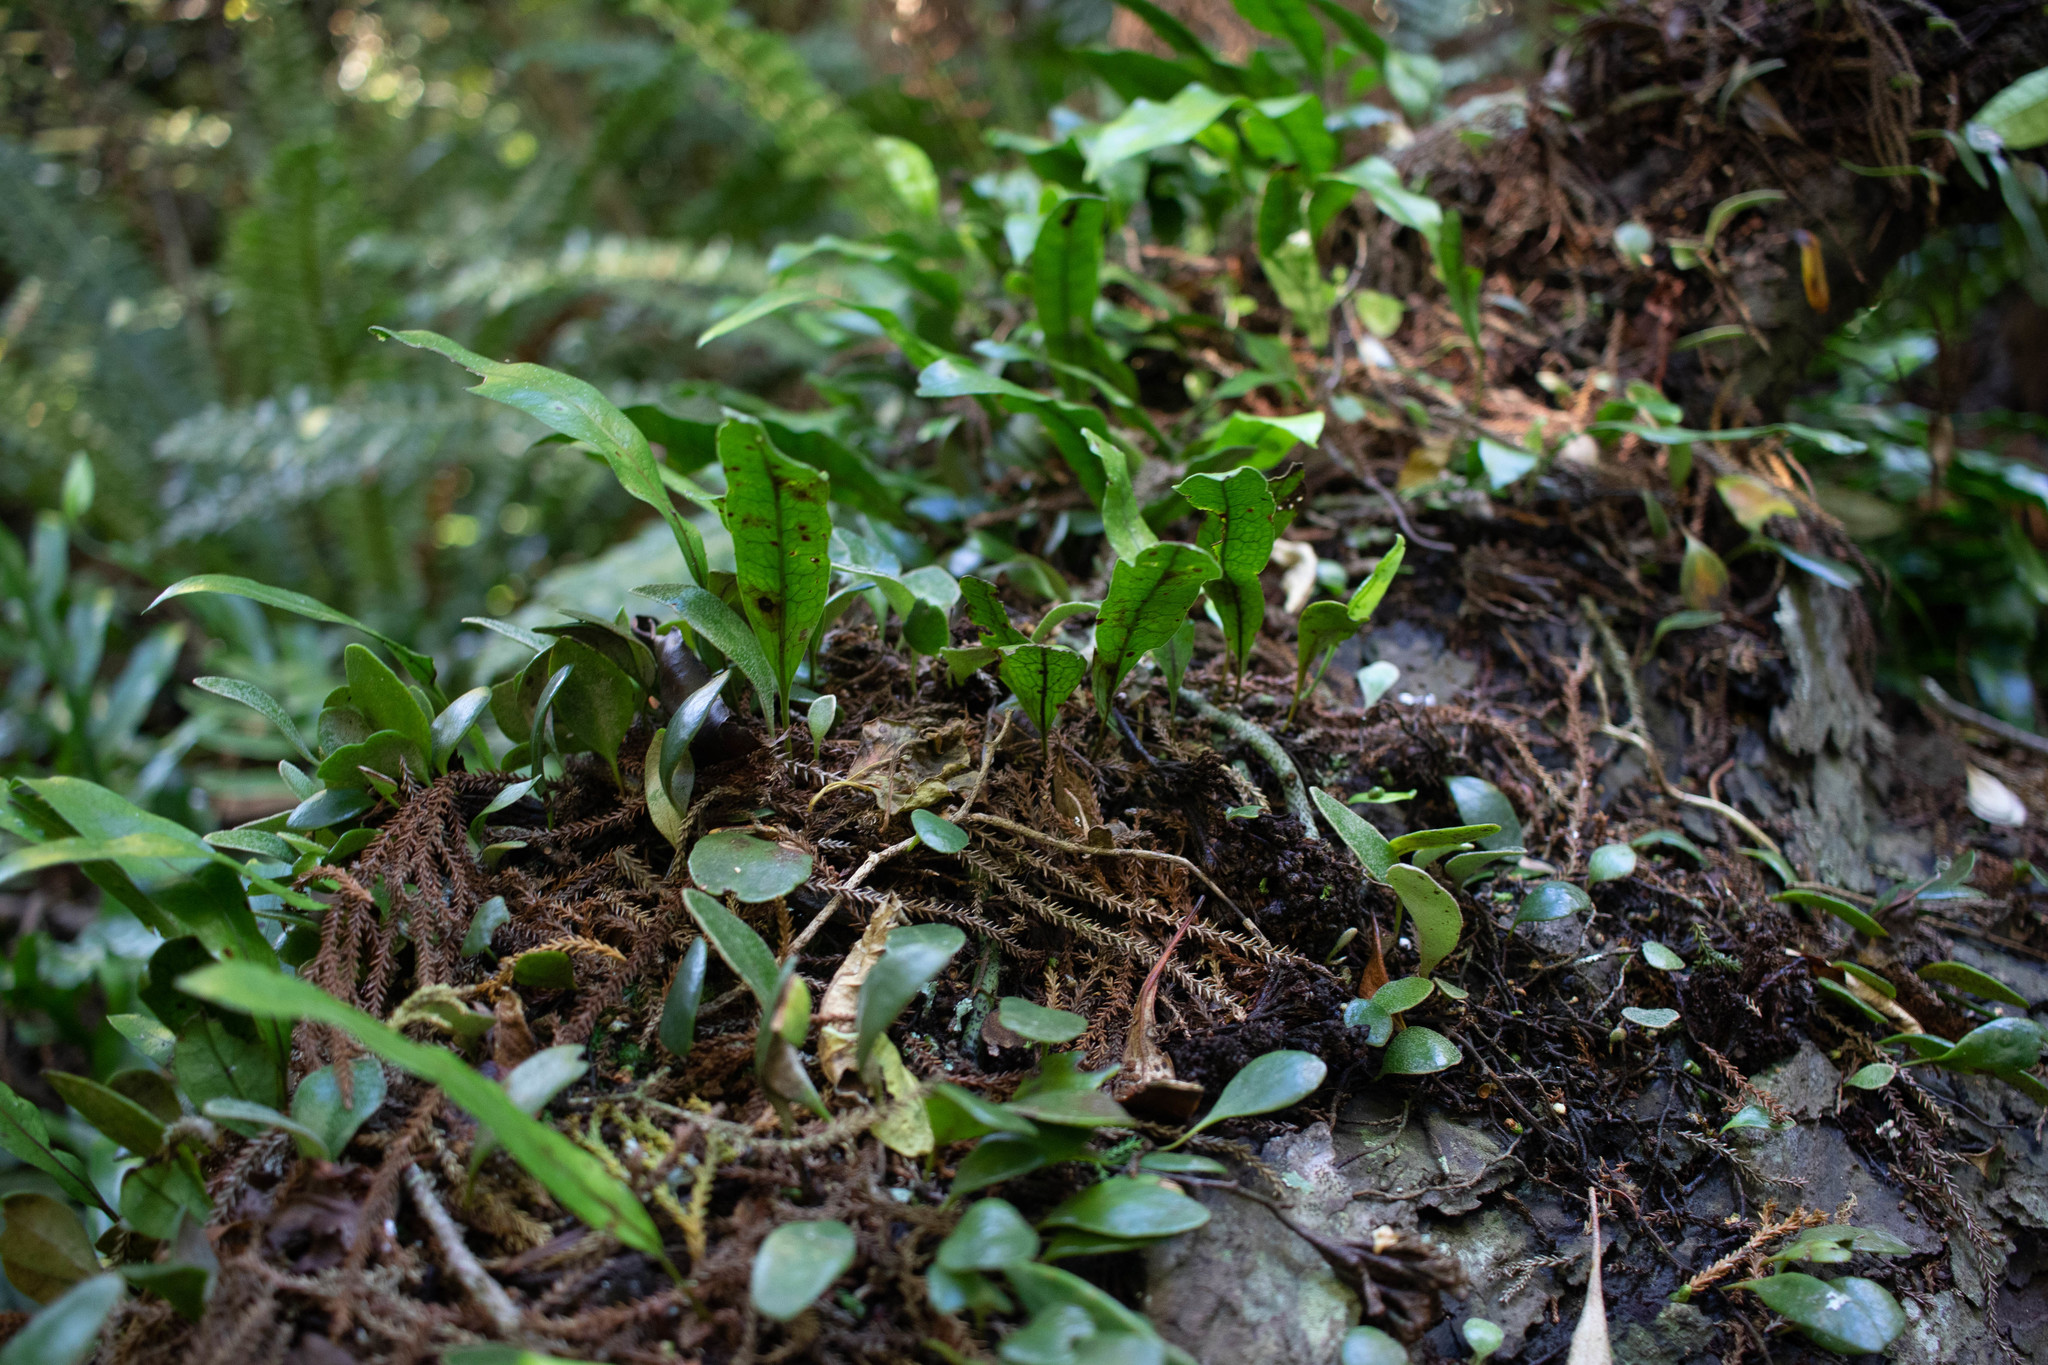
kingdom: Plantae
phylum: Tracheophyta
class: Polypodiopsida
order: Polypodiales
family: Polypodiaceae
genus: Lecanopteris
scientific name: Lecanopteris pustulata
